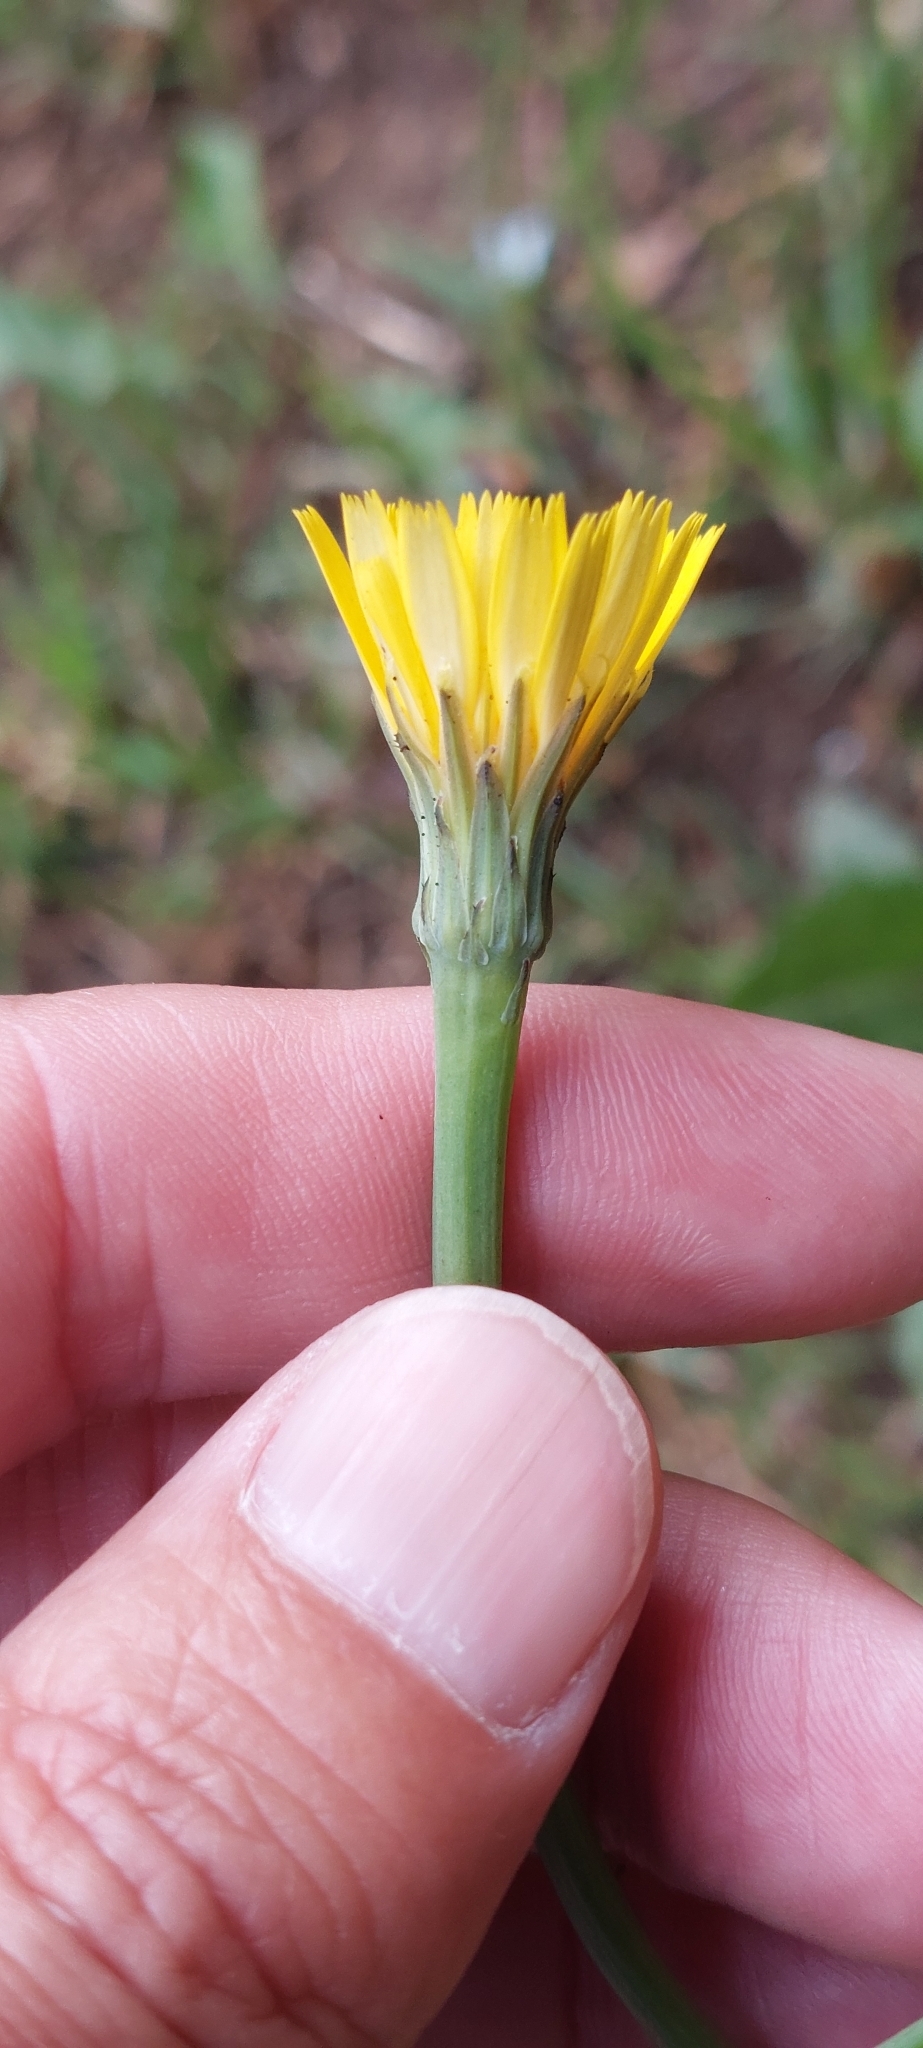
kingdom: Plantae
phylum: Tracheophyta
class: Magnoliopsida
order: Asterales
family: Asteraceae
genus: Hypochaeris
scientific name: Hypochaeris radicata
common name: Flatweed
